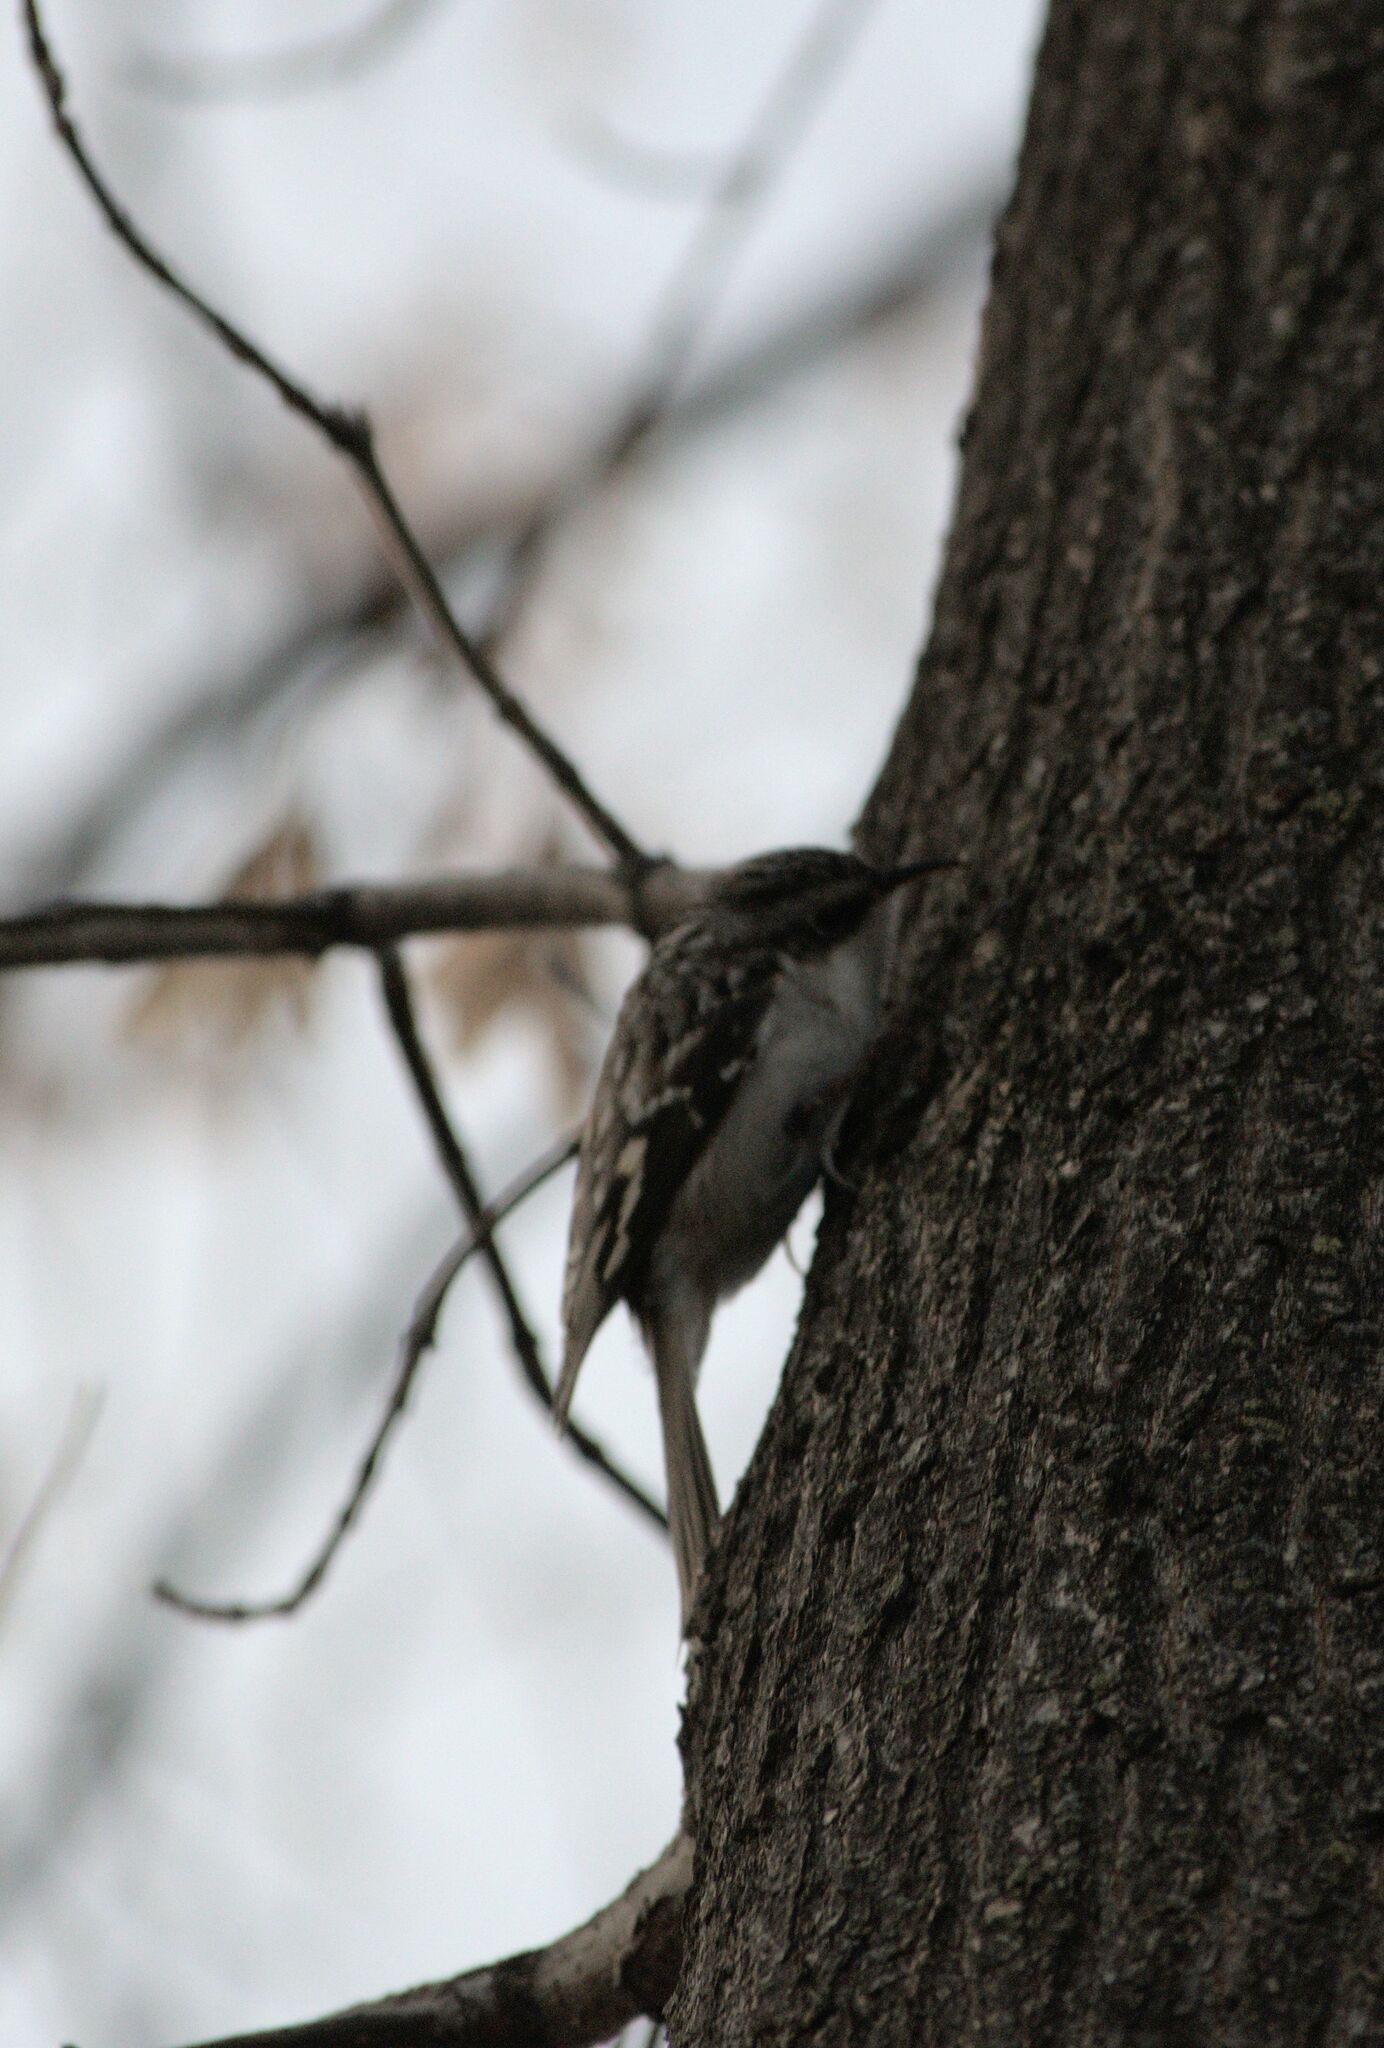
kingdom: Animalia
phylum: Chordata
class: Aves
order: Passeriformes
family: Certhiidae
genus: Certhia
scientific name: Certhia americana
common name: Brown creeper
